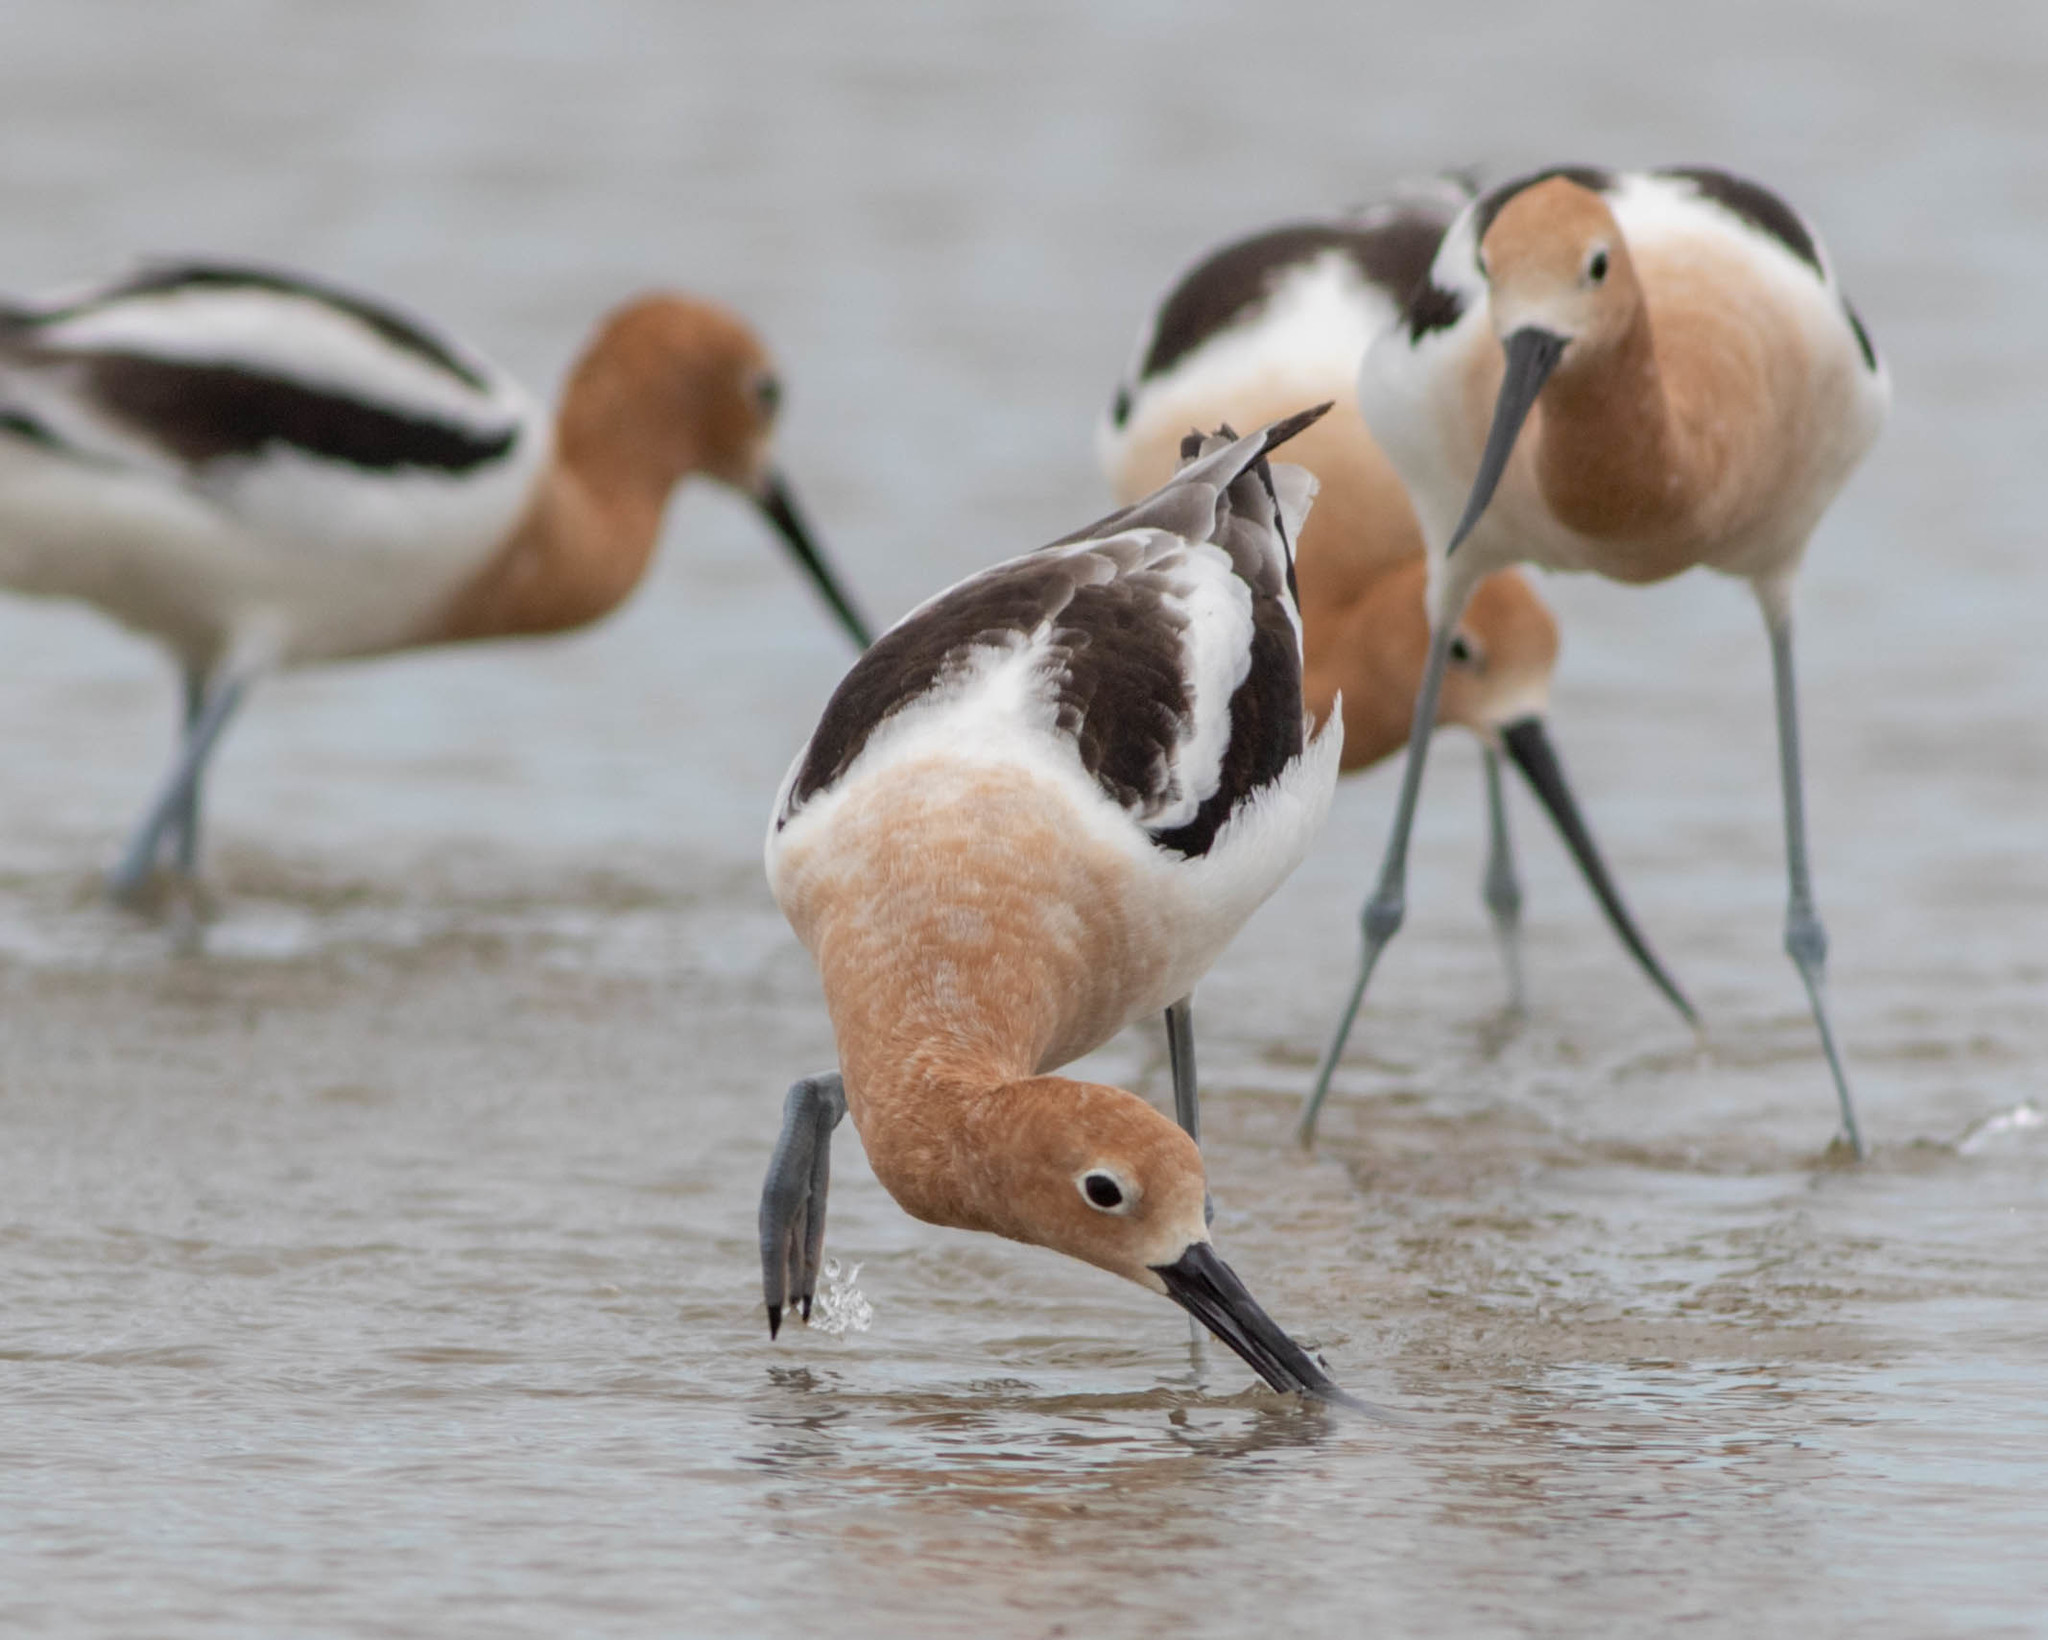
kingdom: Animalia
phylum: Chordata
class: Aves
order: Charadriiformes
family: Recurvirostridae
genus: Recurvirostra
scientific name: Recurvirostra americana
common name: American avocet
